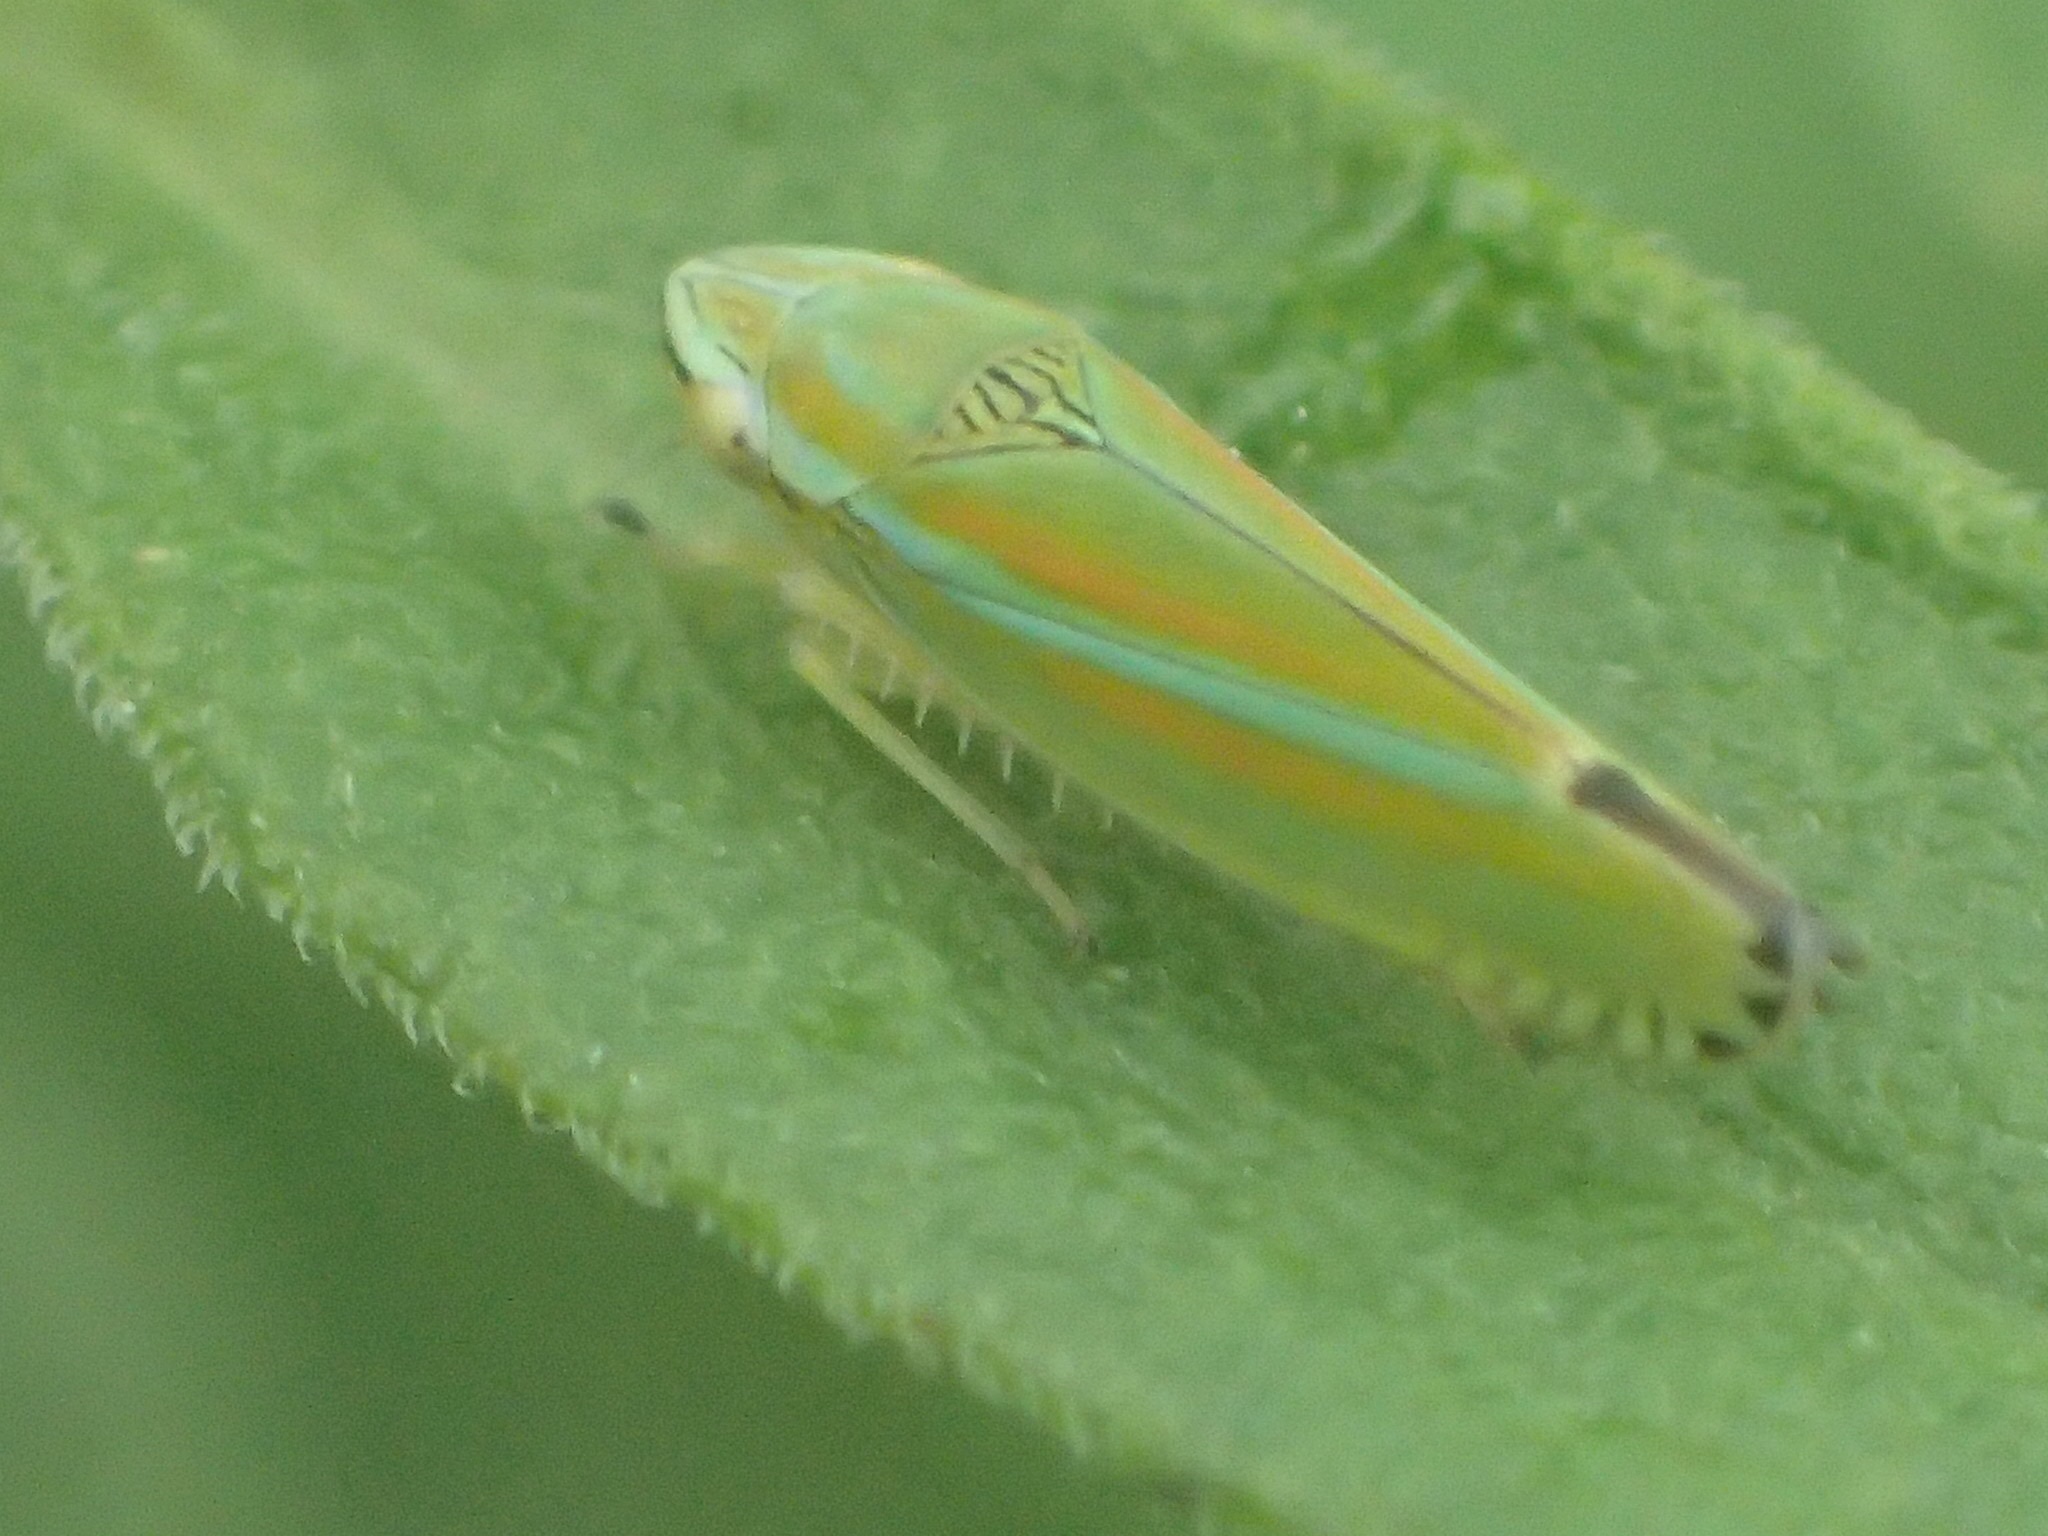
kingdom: Animalia
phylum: Arthropoda
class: Insecta
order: Hemiptera
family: Cicadellidae
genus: Graphocephala
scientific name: Graphocephala versuta
